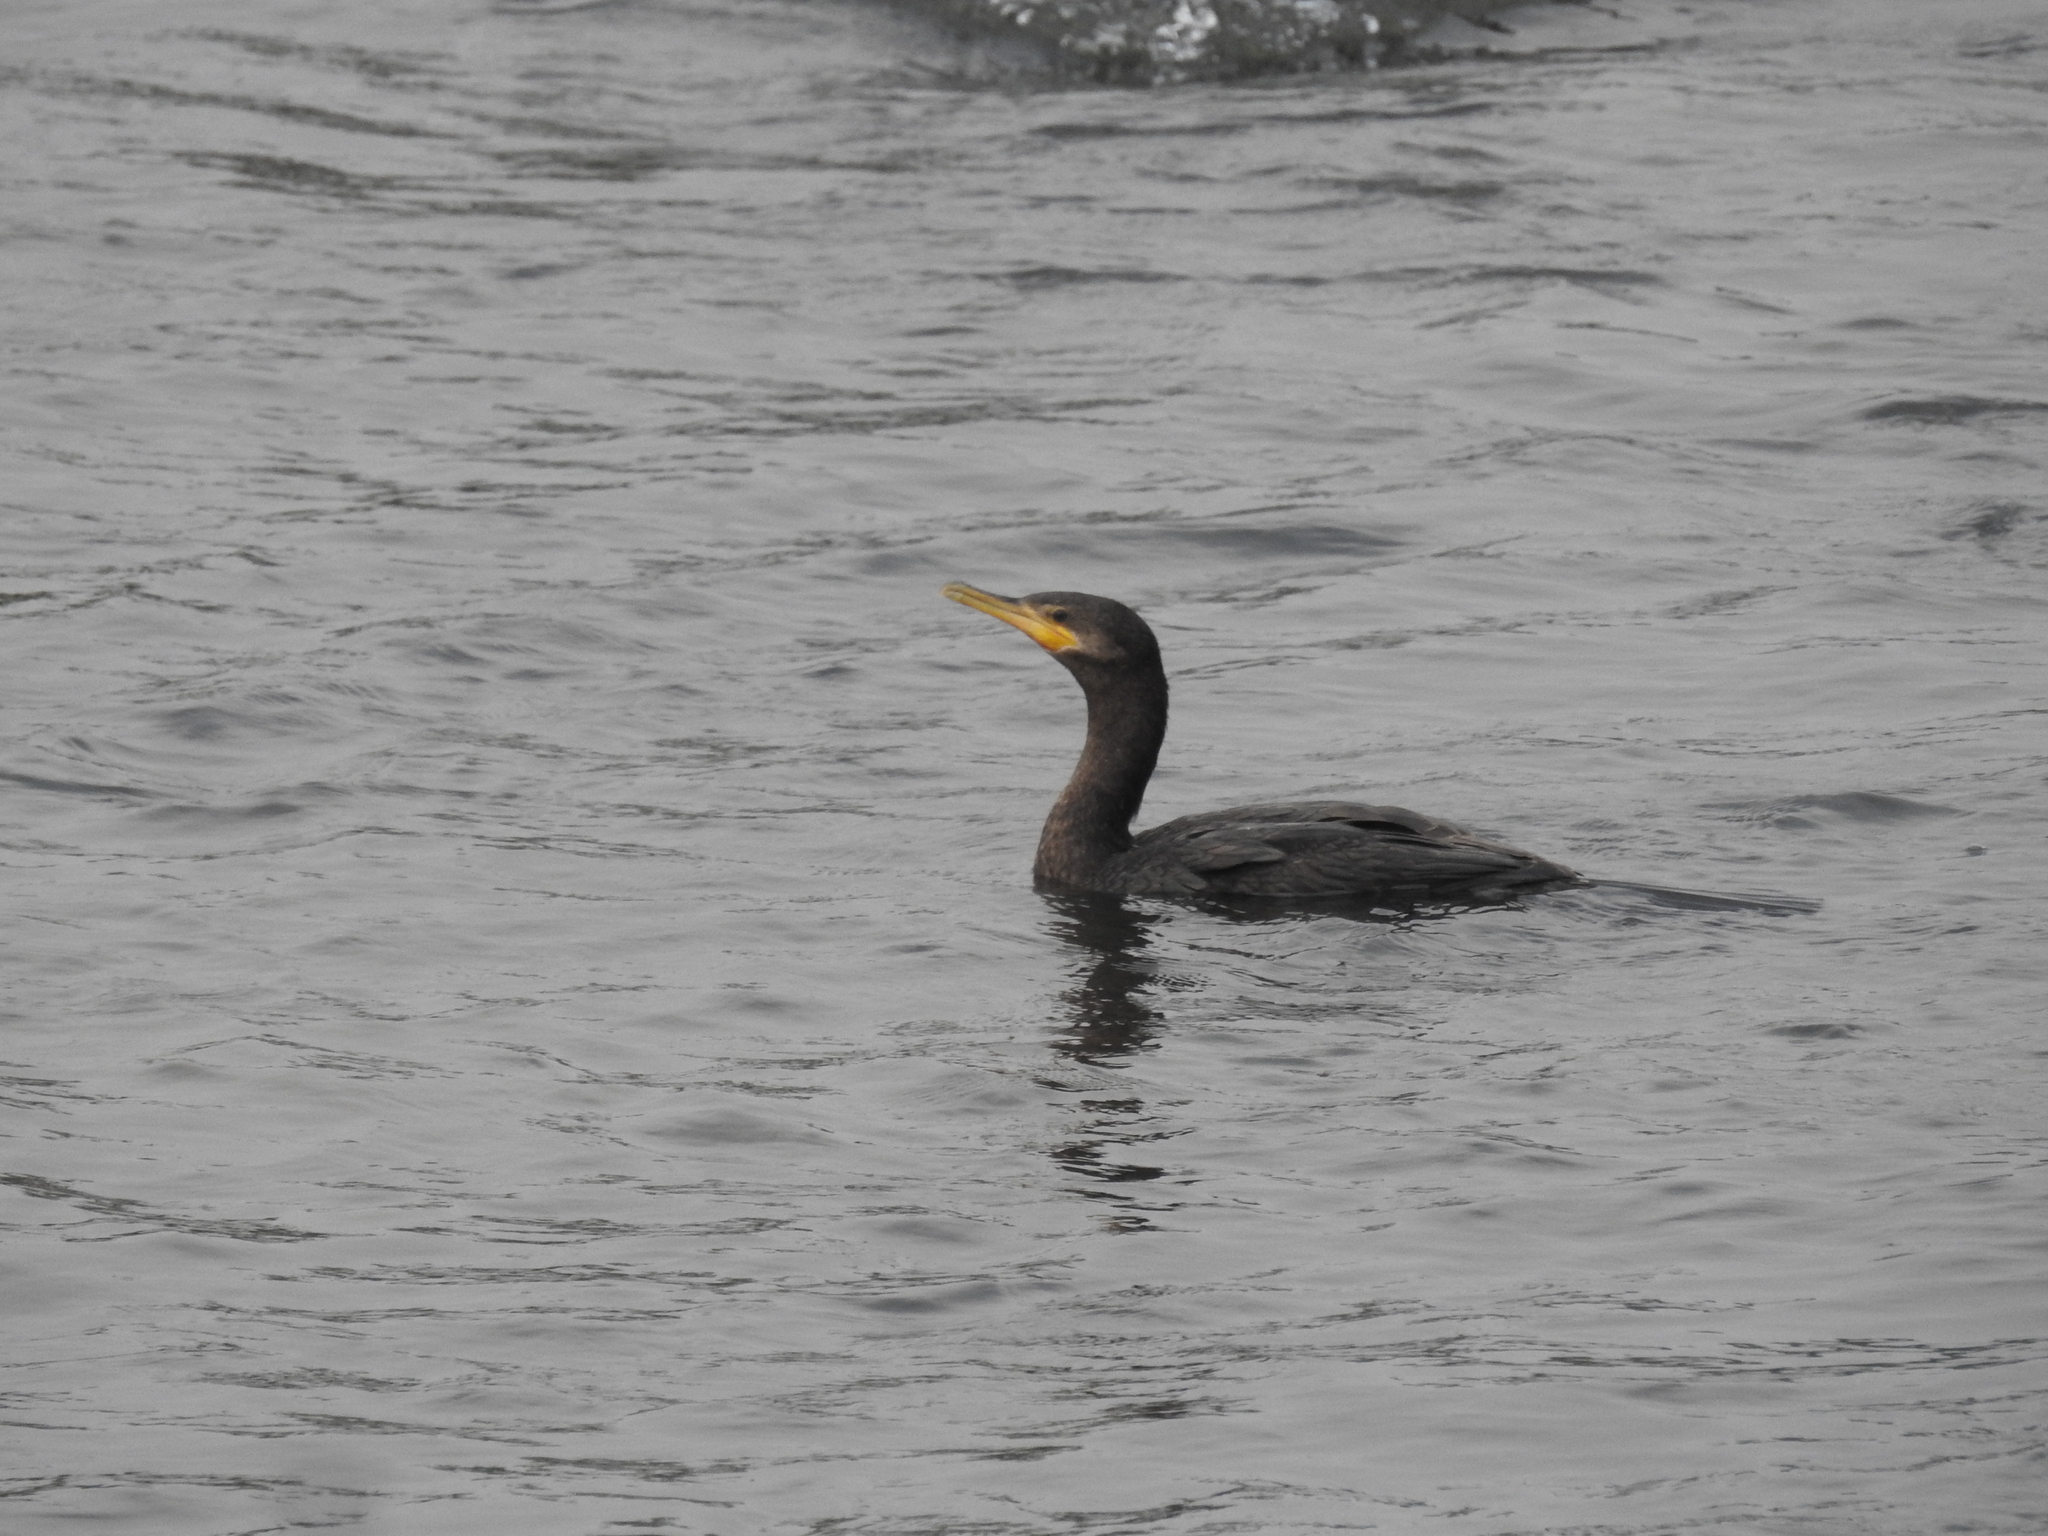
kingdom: Animalia
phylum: Chordata
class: Aves
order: Suliformes
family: Phalacrocoracidae
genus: Phalacrocorax
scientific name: Phalacrocorax brasilianus
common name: Neotropic cormorant
